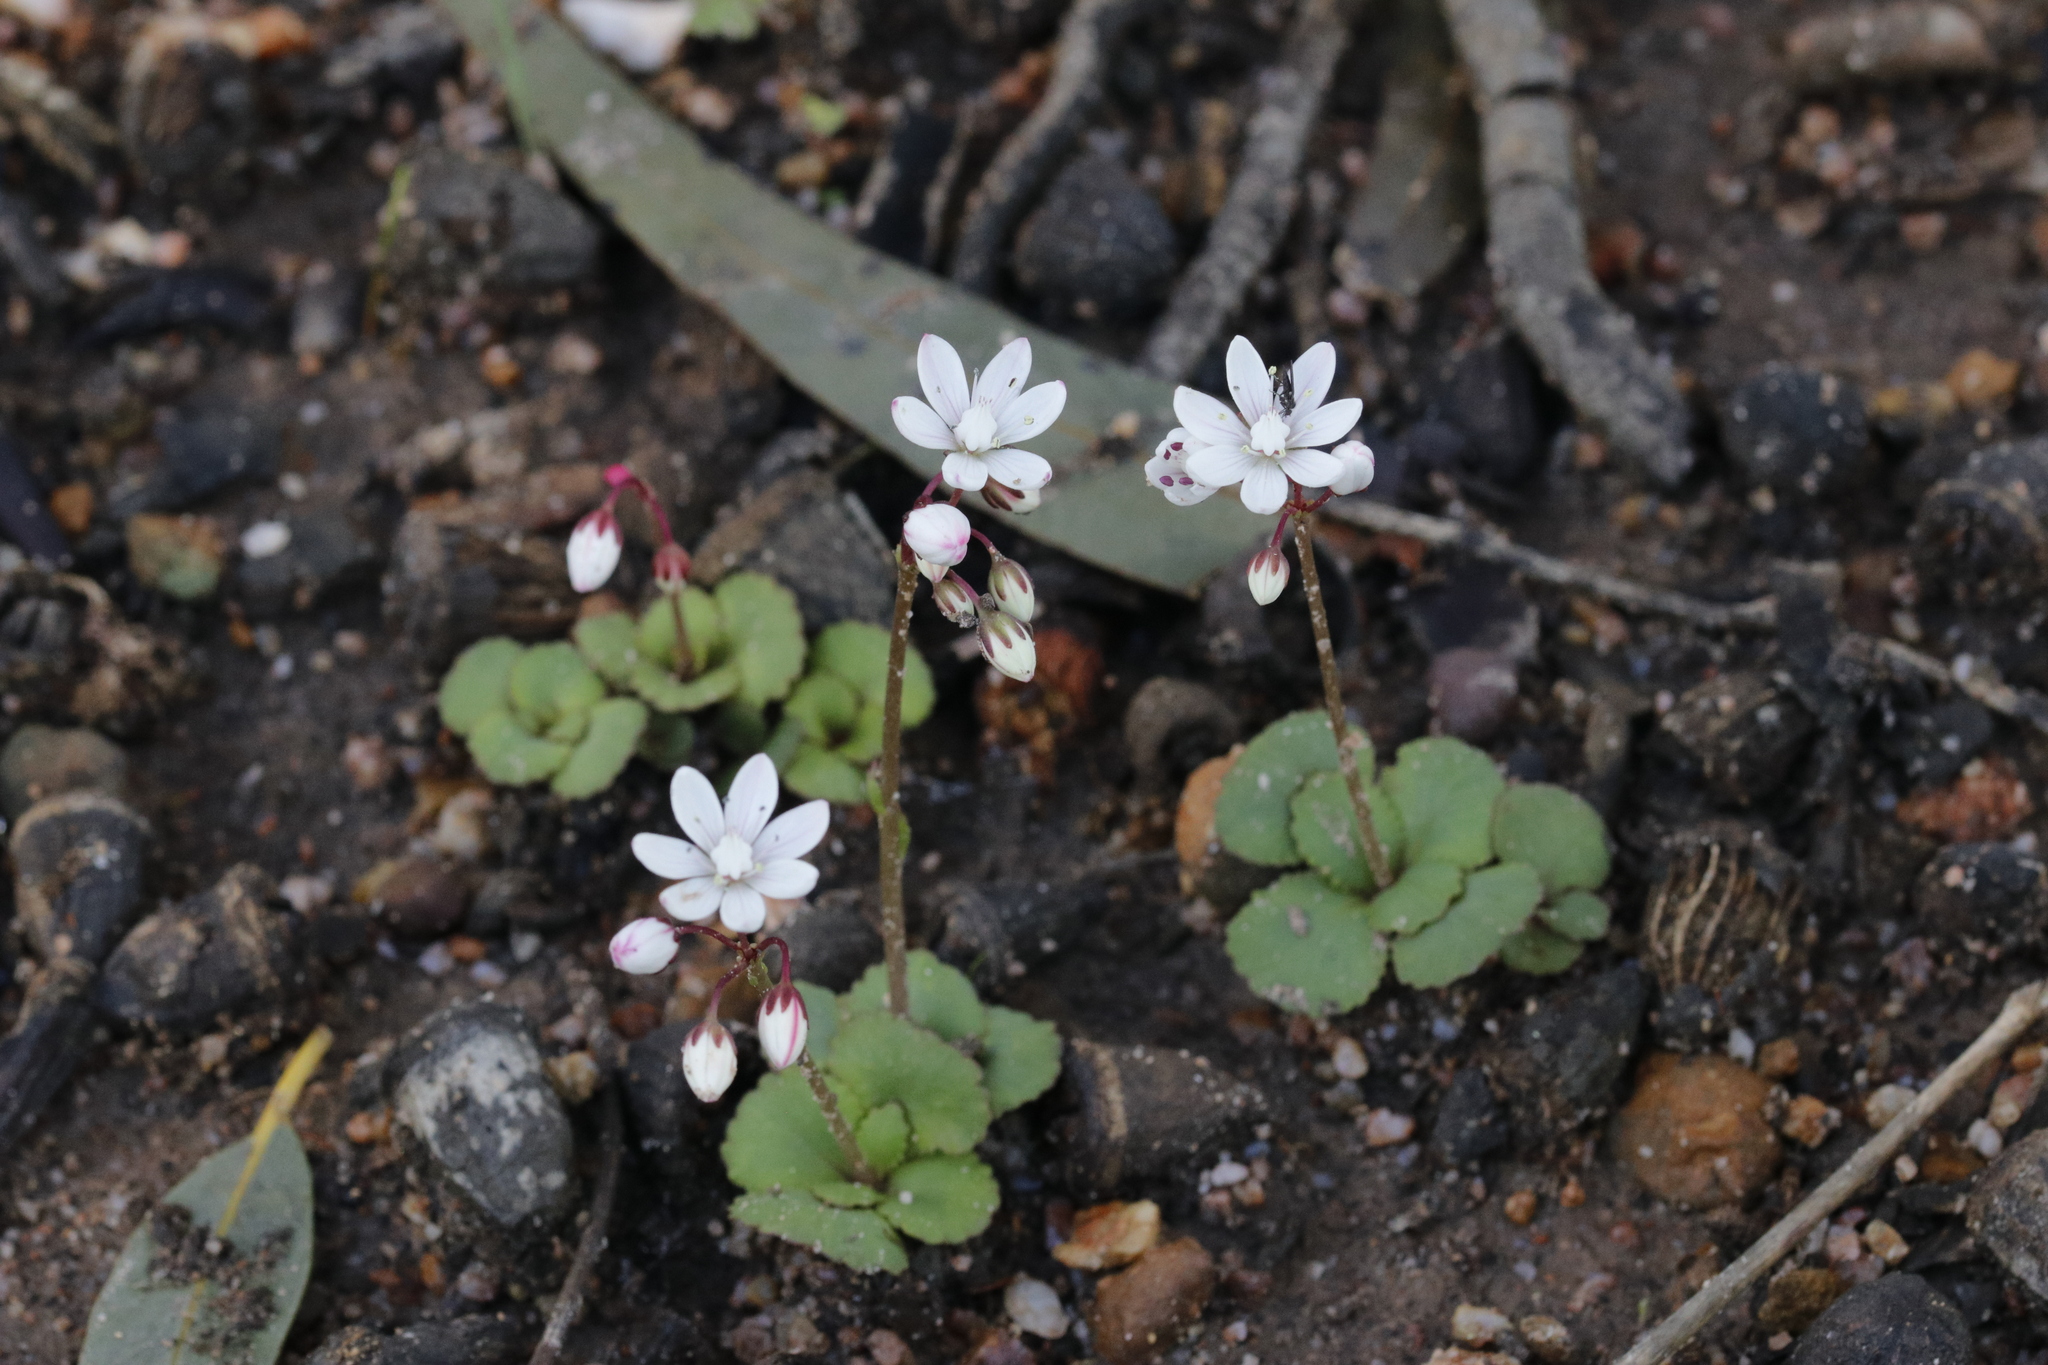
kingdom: Plantae
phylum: Tracheophyta
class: Magnoliopsida
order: Saxifragales
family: Crassulaceae
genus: Crassula
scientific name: Crassula capensis
